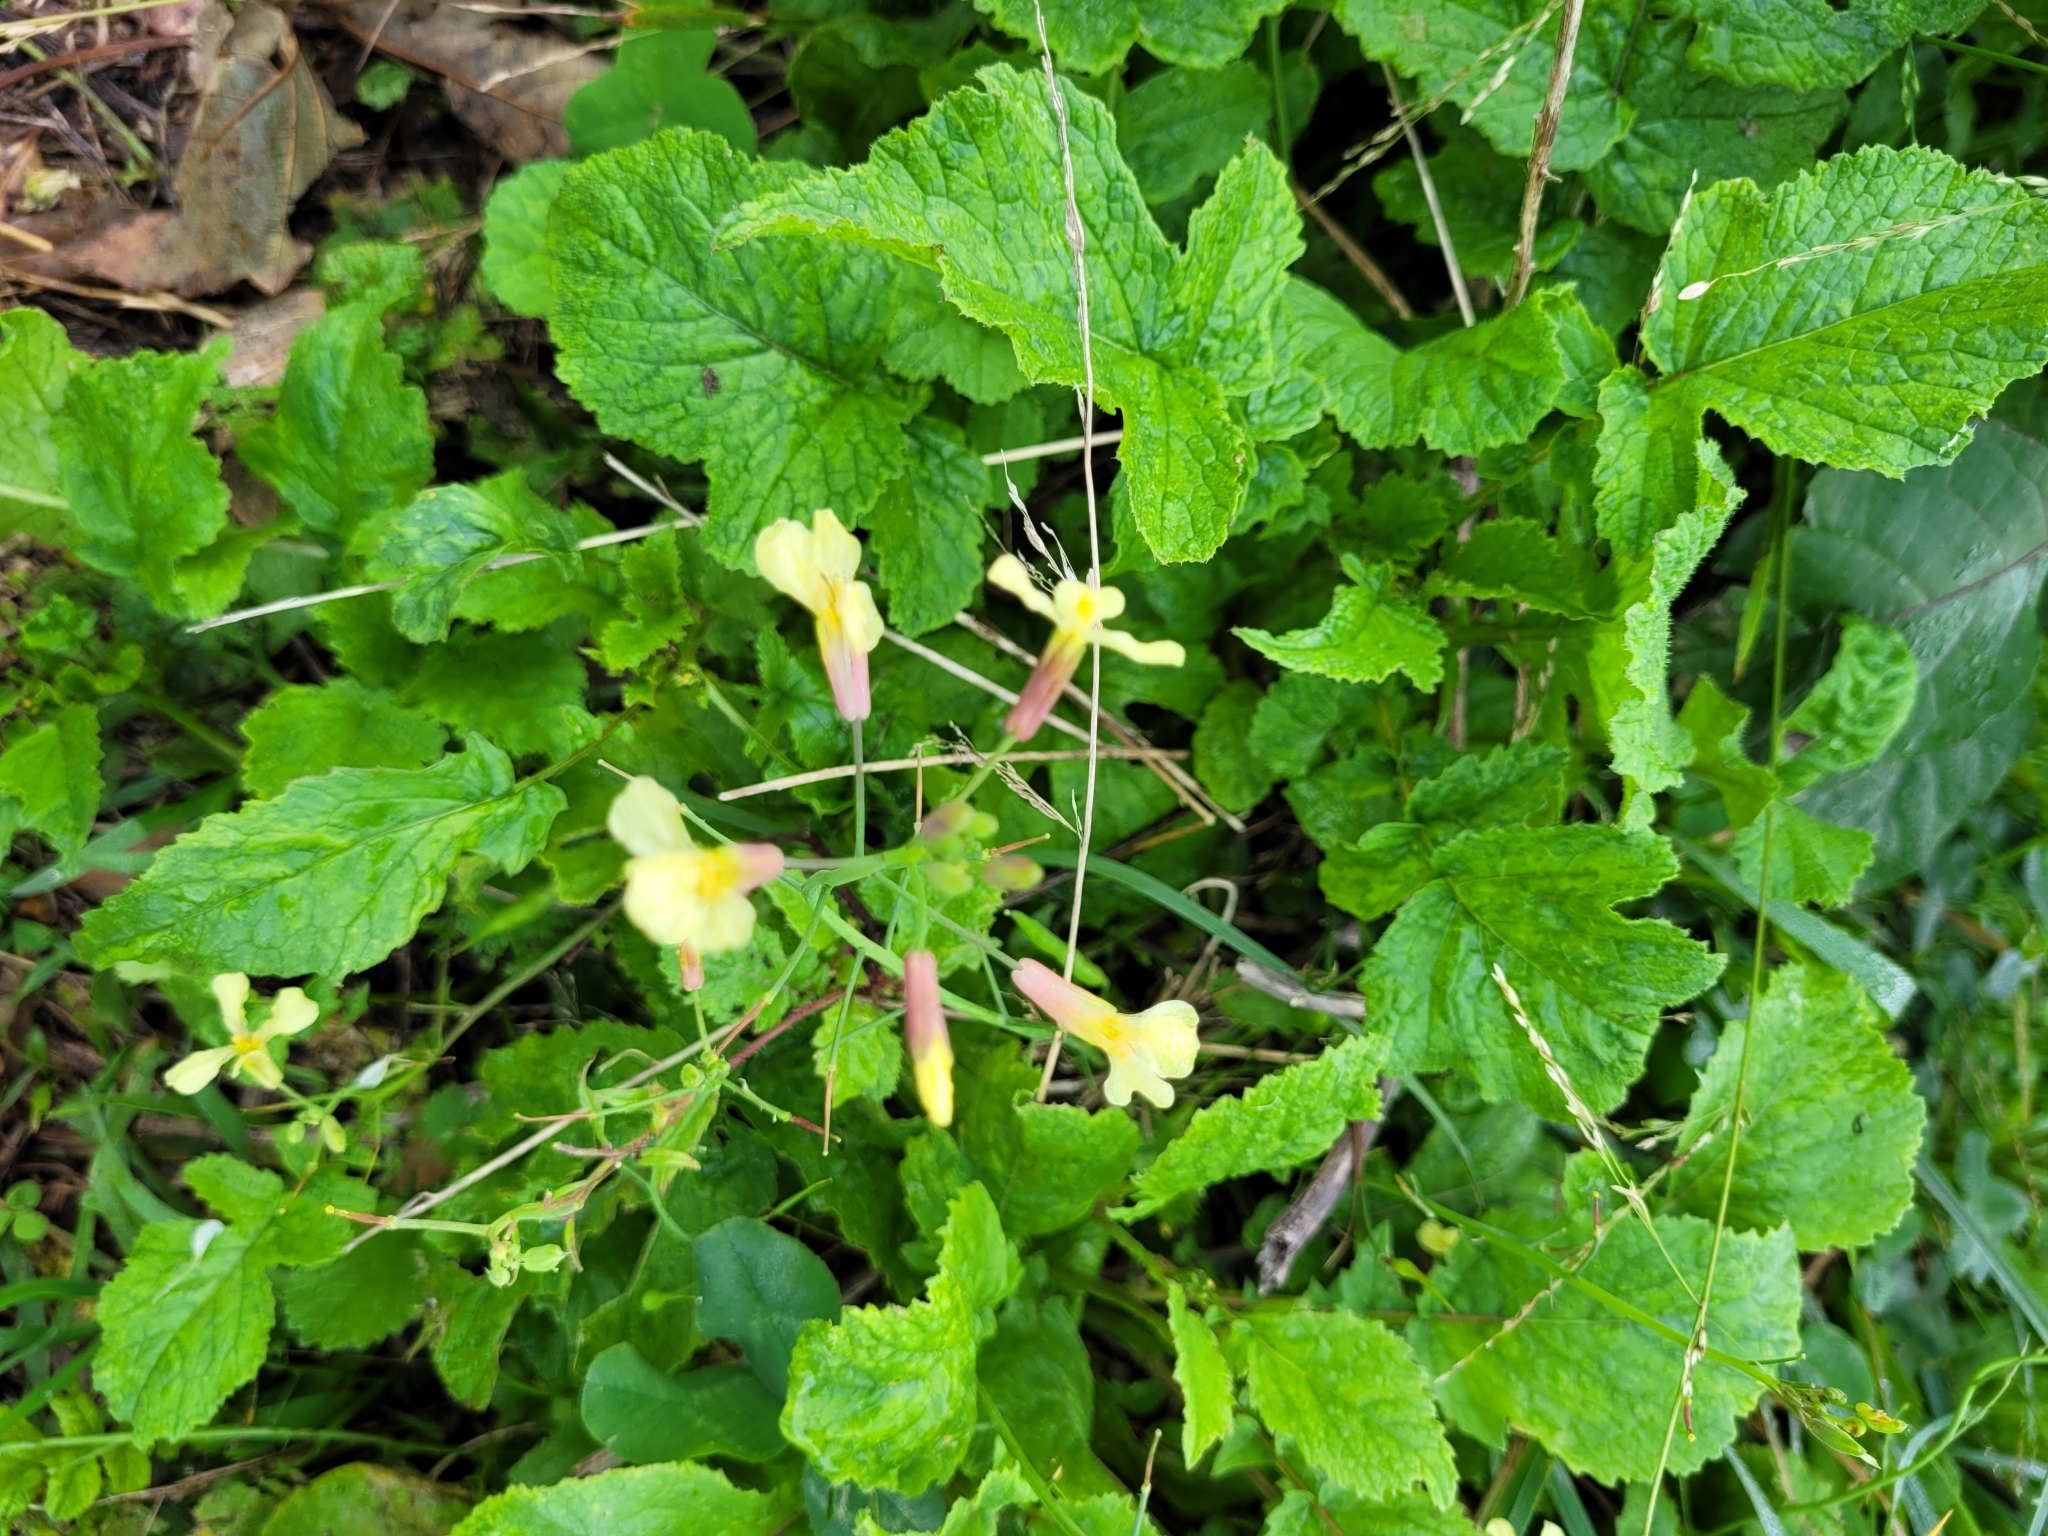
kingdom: Plantae
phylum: Tracheophyta
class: Magnoliopsida
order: Brassicales
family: Brassicaceae
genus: Raphanus
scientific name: Raphanus raphanistrum
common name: Wild radish
